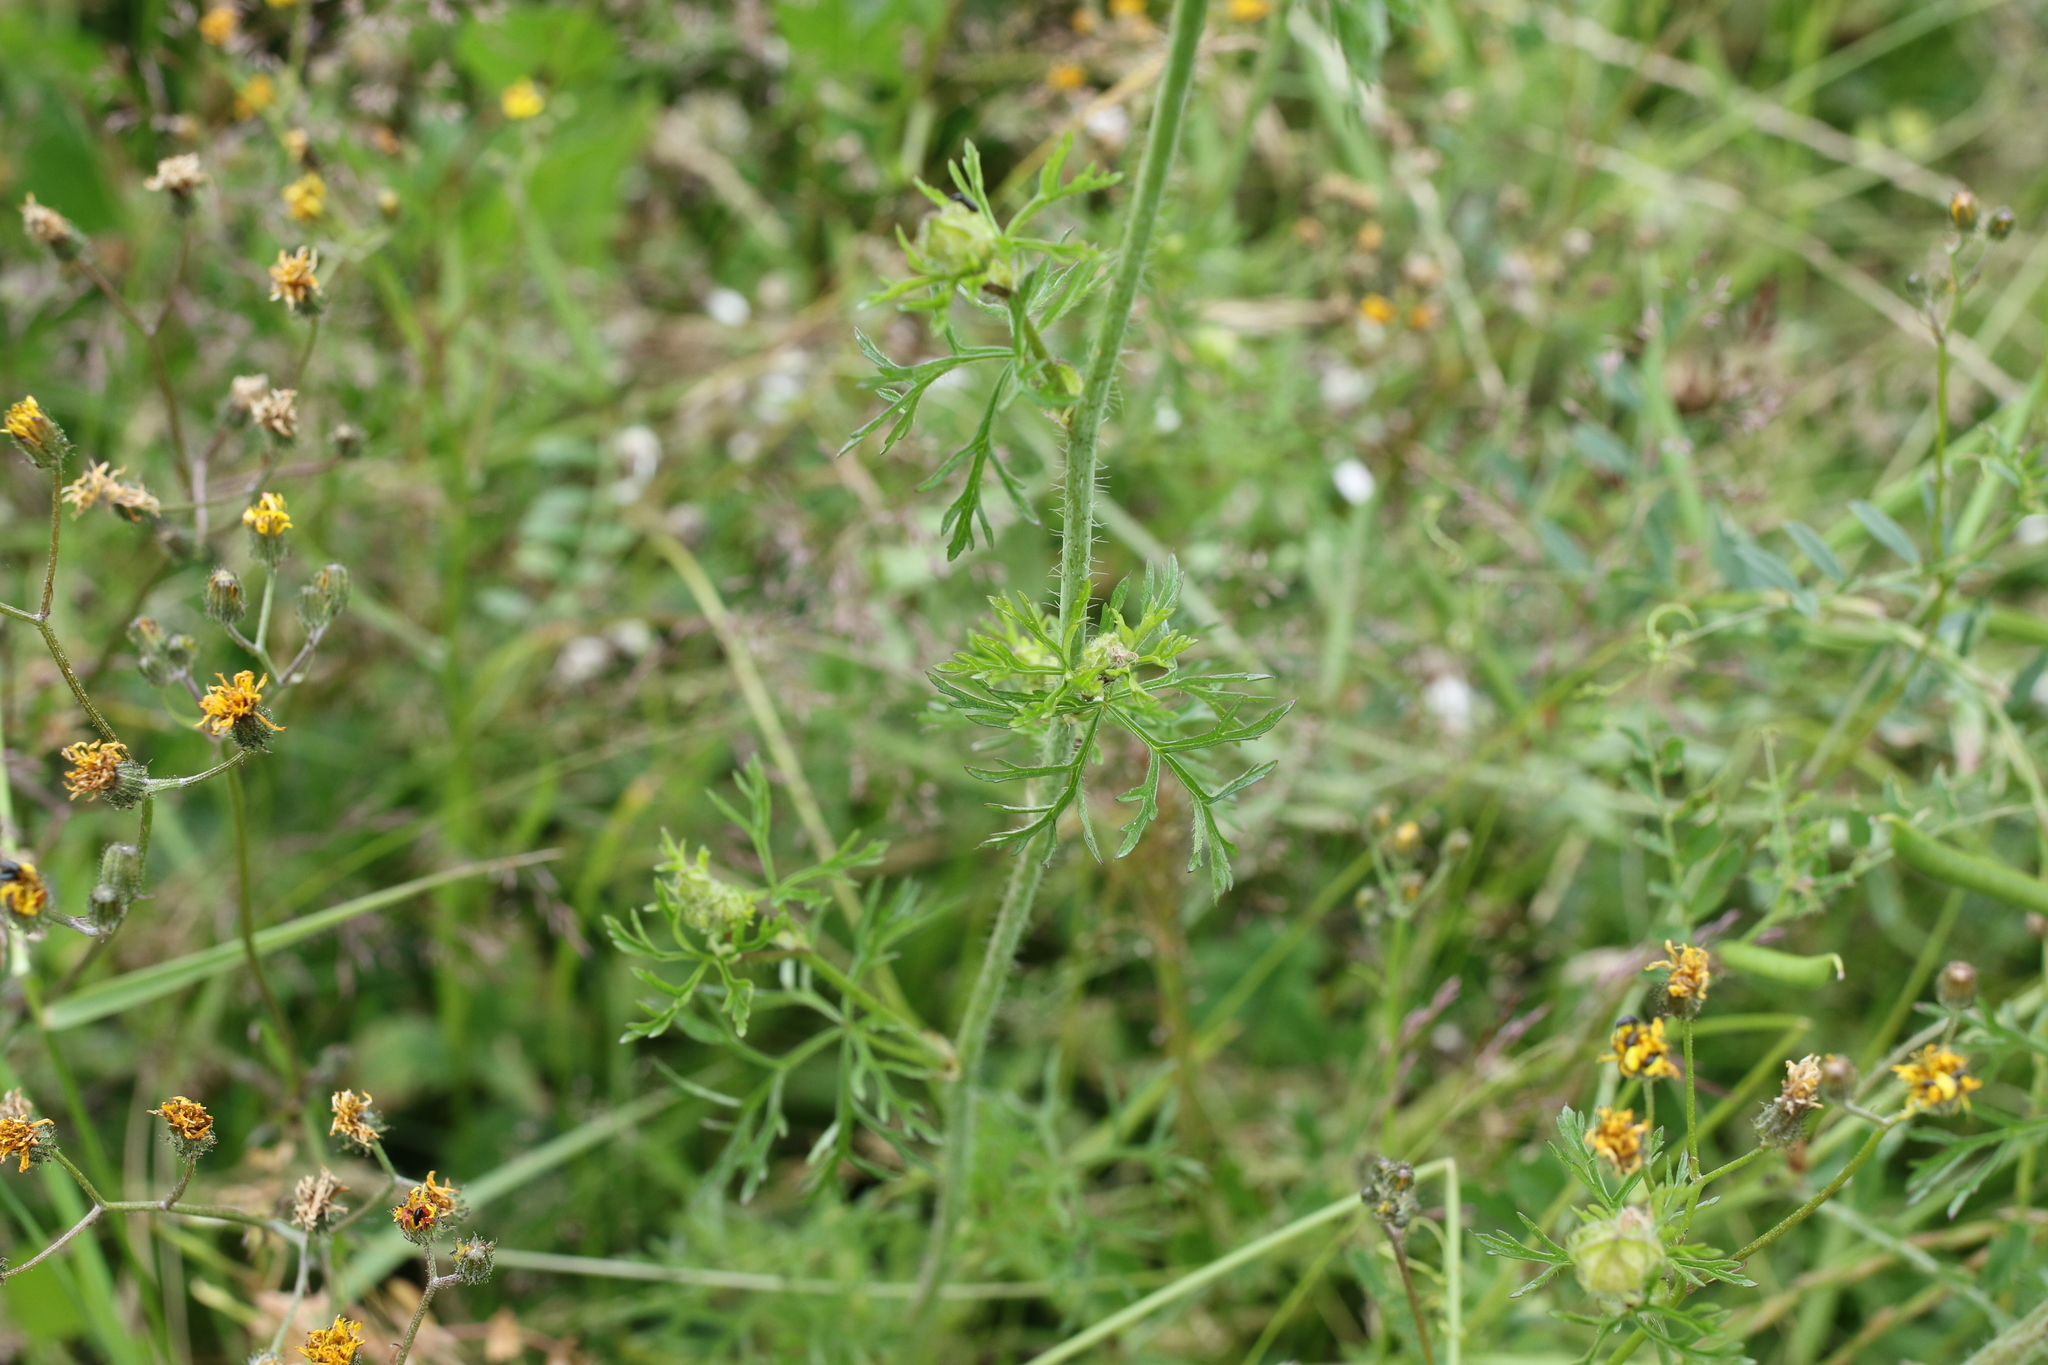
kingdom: Plantae
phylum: Tracheophyta
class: Magnoliopsida
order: Malvales
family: Malvaceae
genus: Malva
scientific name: Malva moschata
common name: Musk mallow
